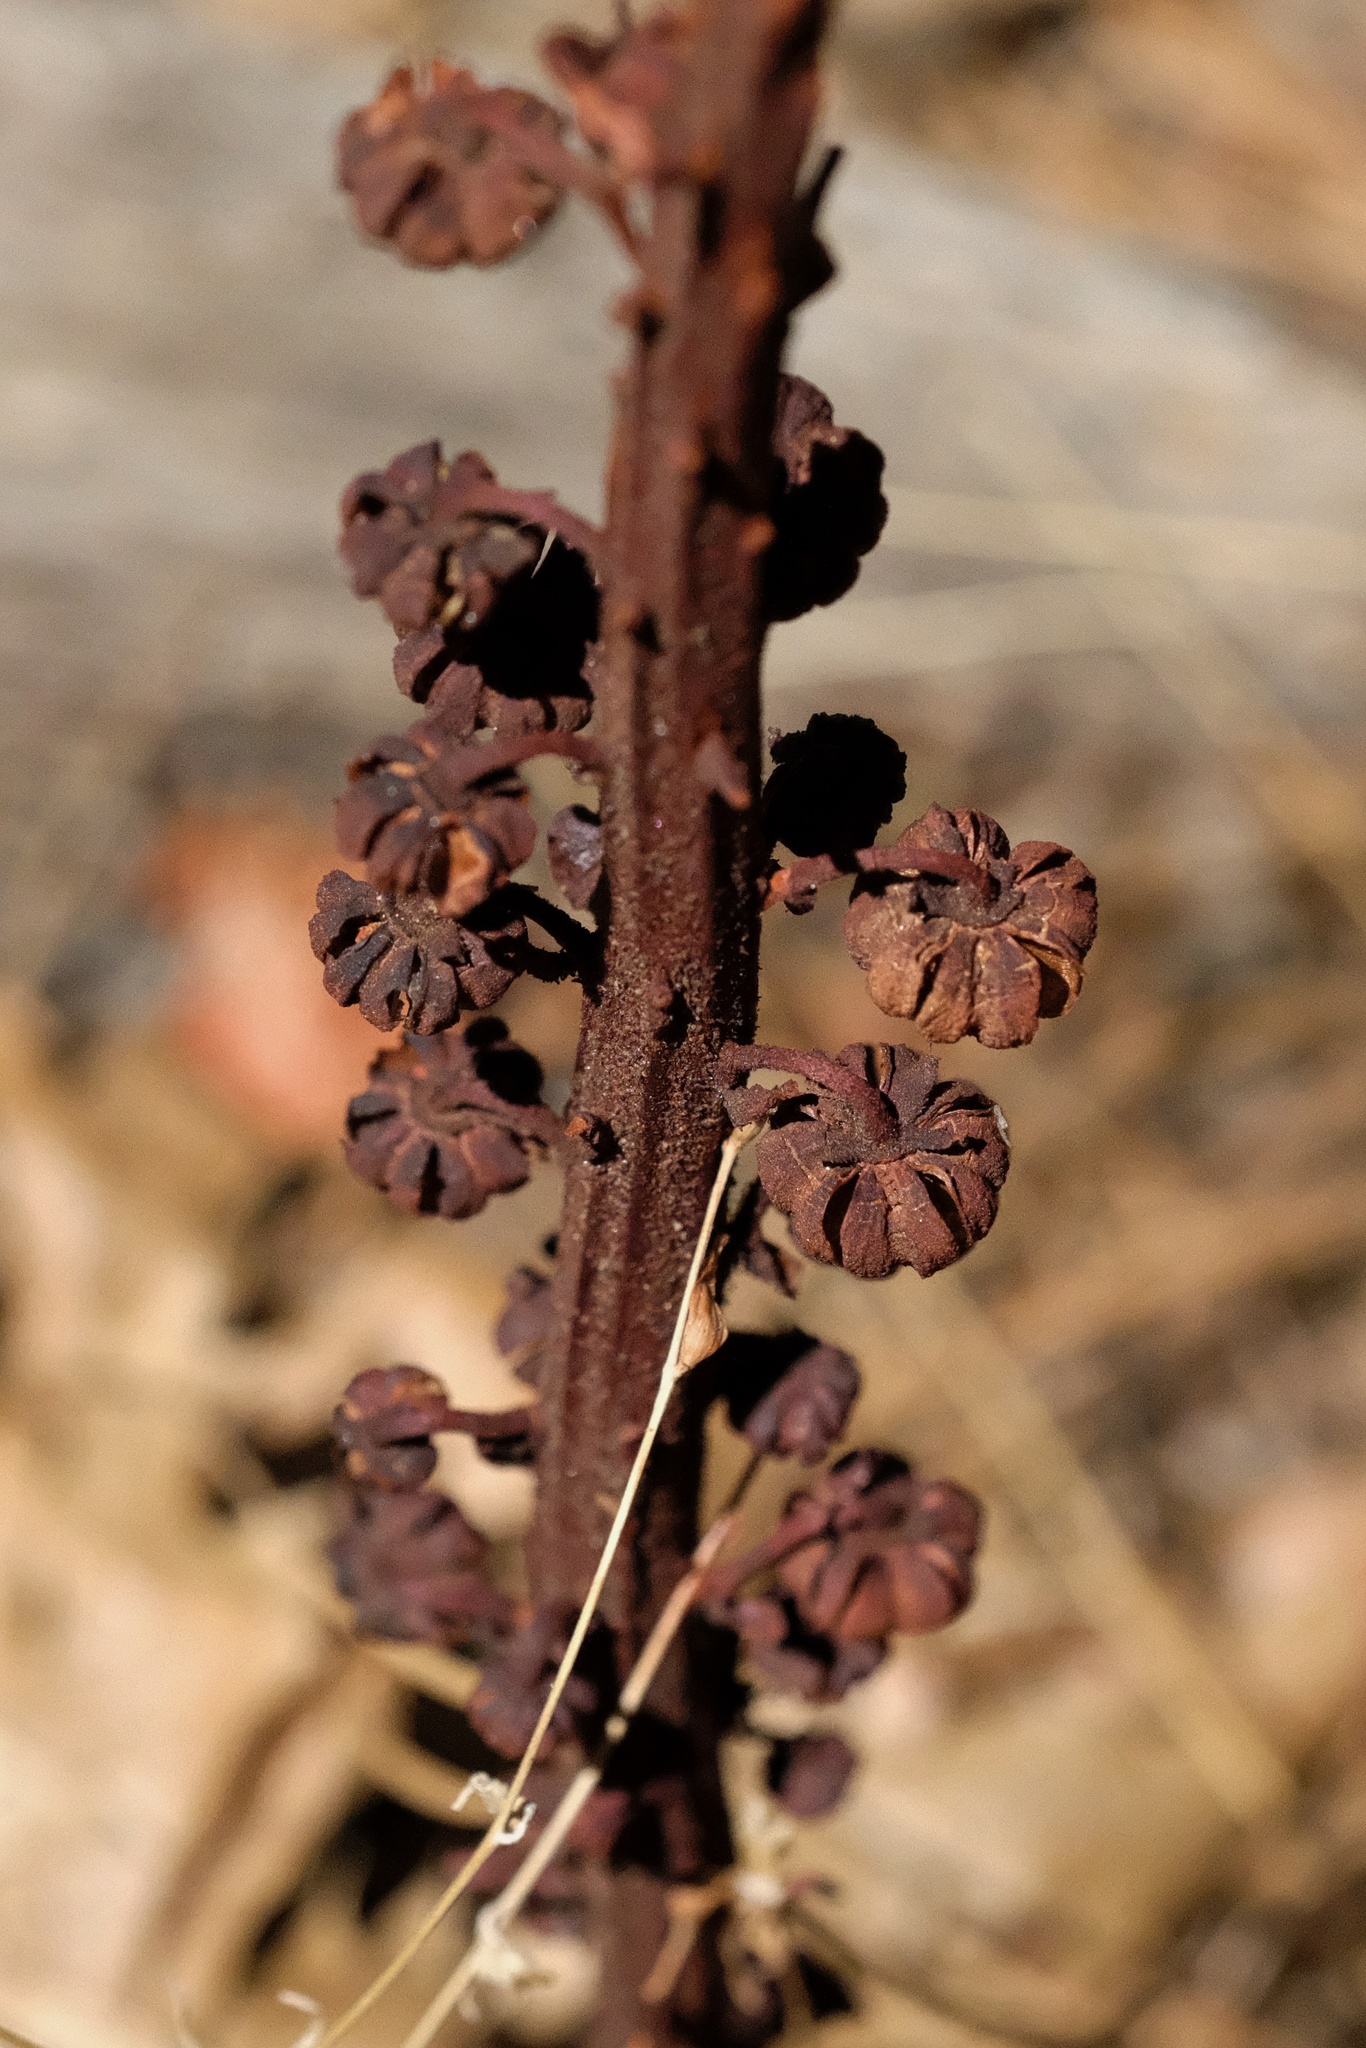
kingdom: Plantae
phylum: Tracheophyta
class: Magnoliopsida
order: Ericales
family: Ericaceae
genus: Pterospora
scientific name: Pterospora andromedea
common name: Giant bird's-nest
